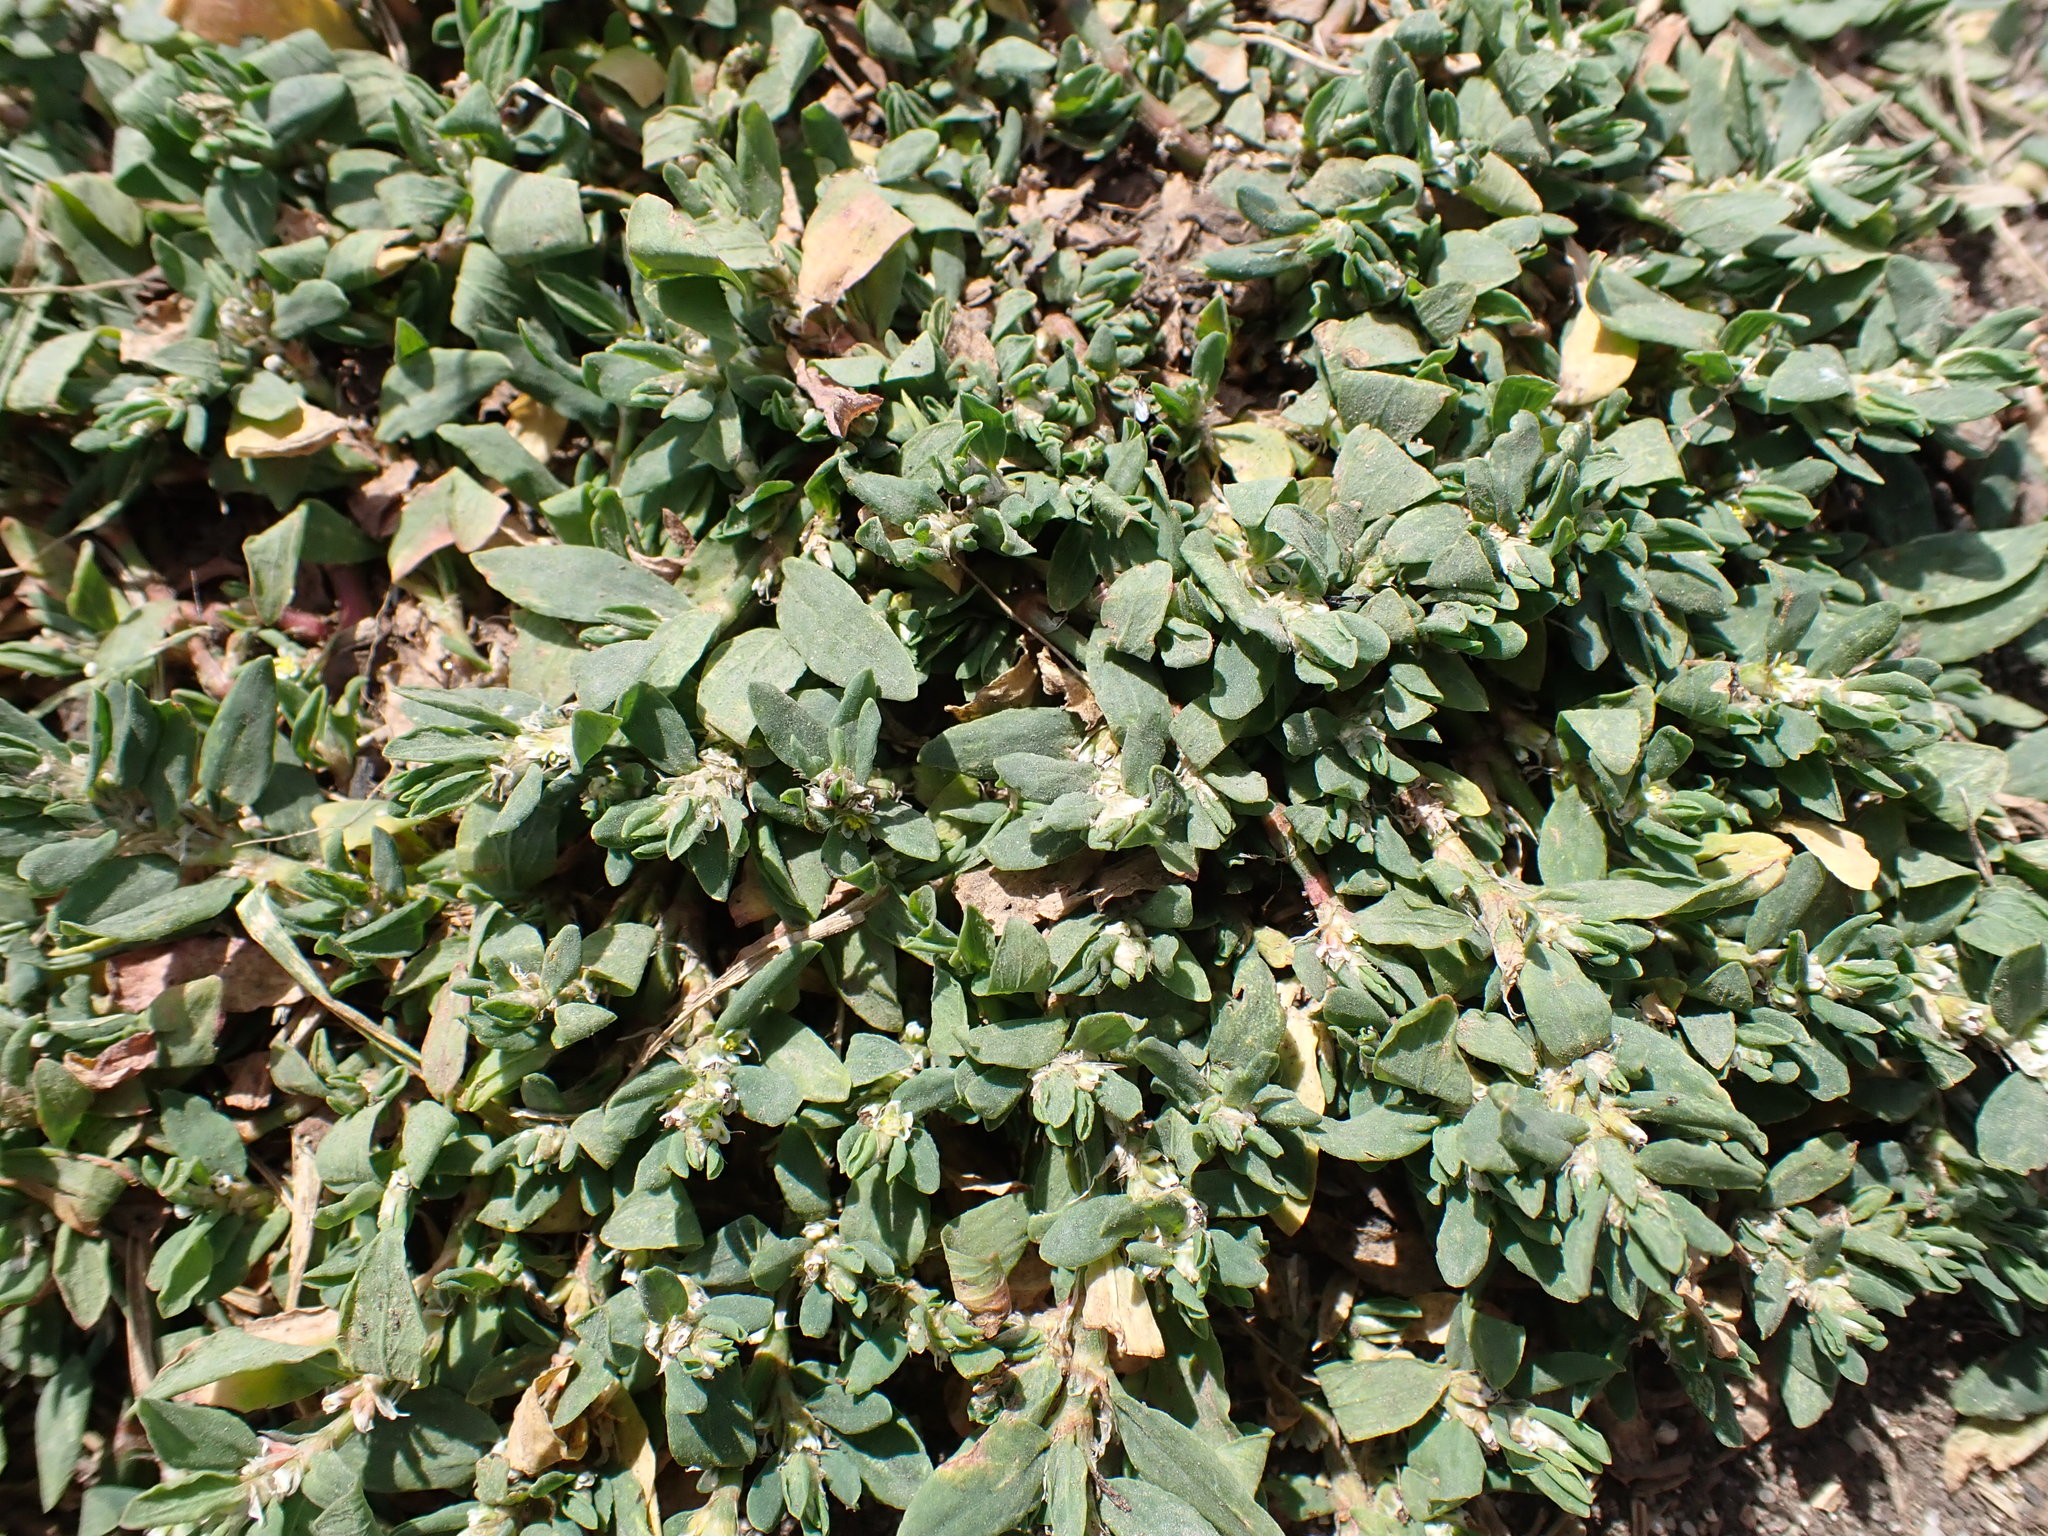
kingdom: Plantae
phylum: Tracheophyta
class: Magnoliopsida
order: Caryophyllales
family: Polygonaceae
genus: Polygonum
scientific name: Polygonum aviculare
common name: Prostrate knotweed
